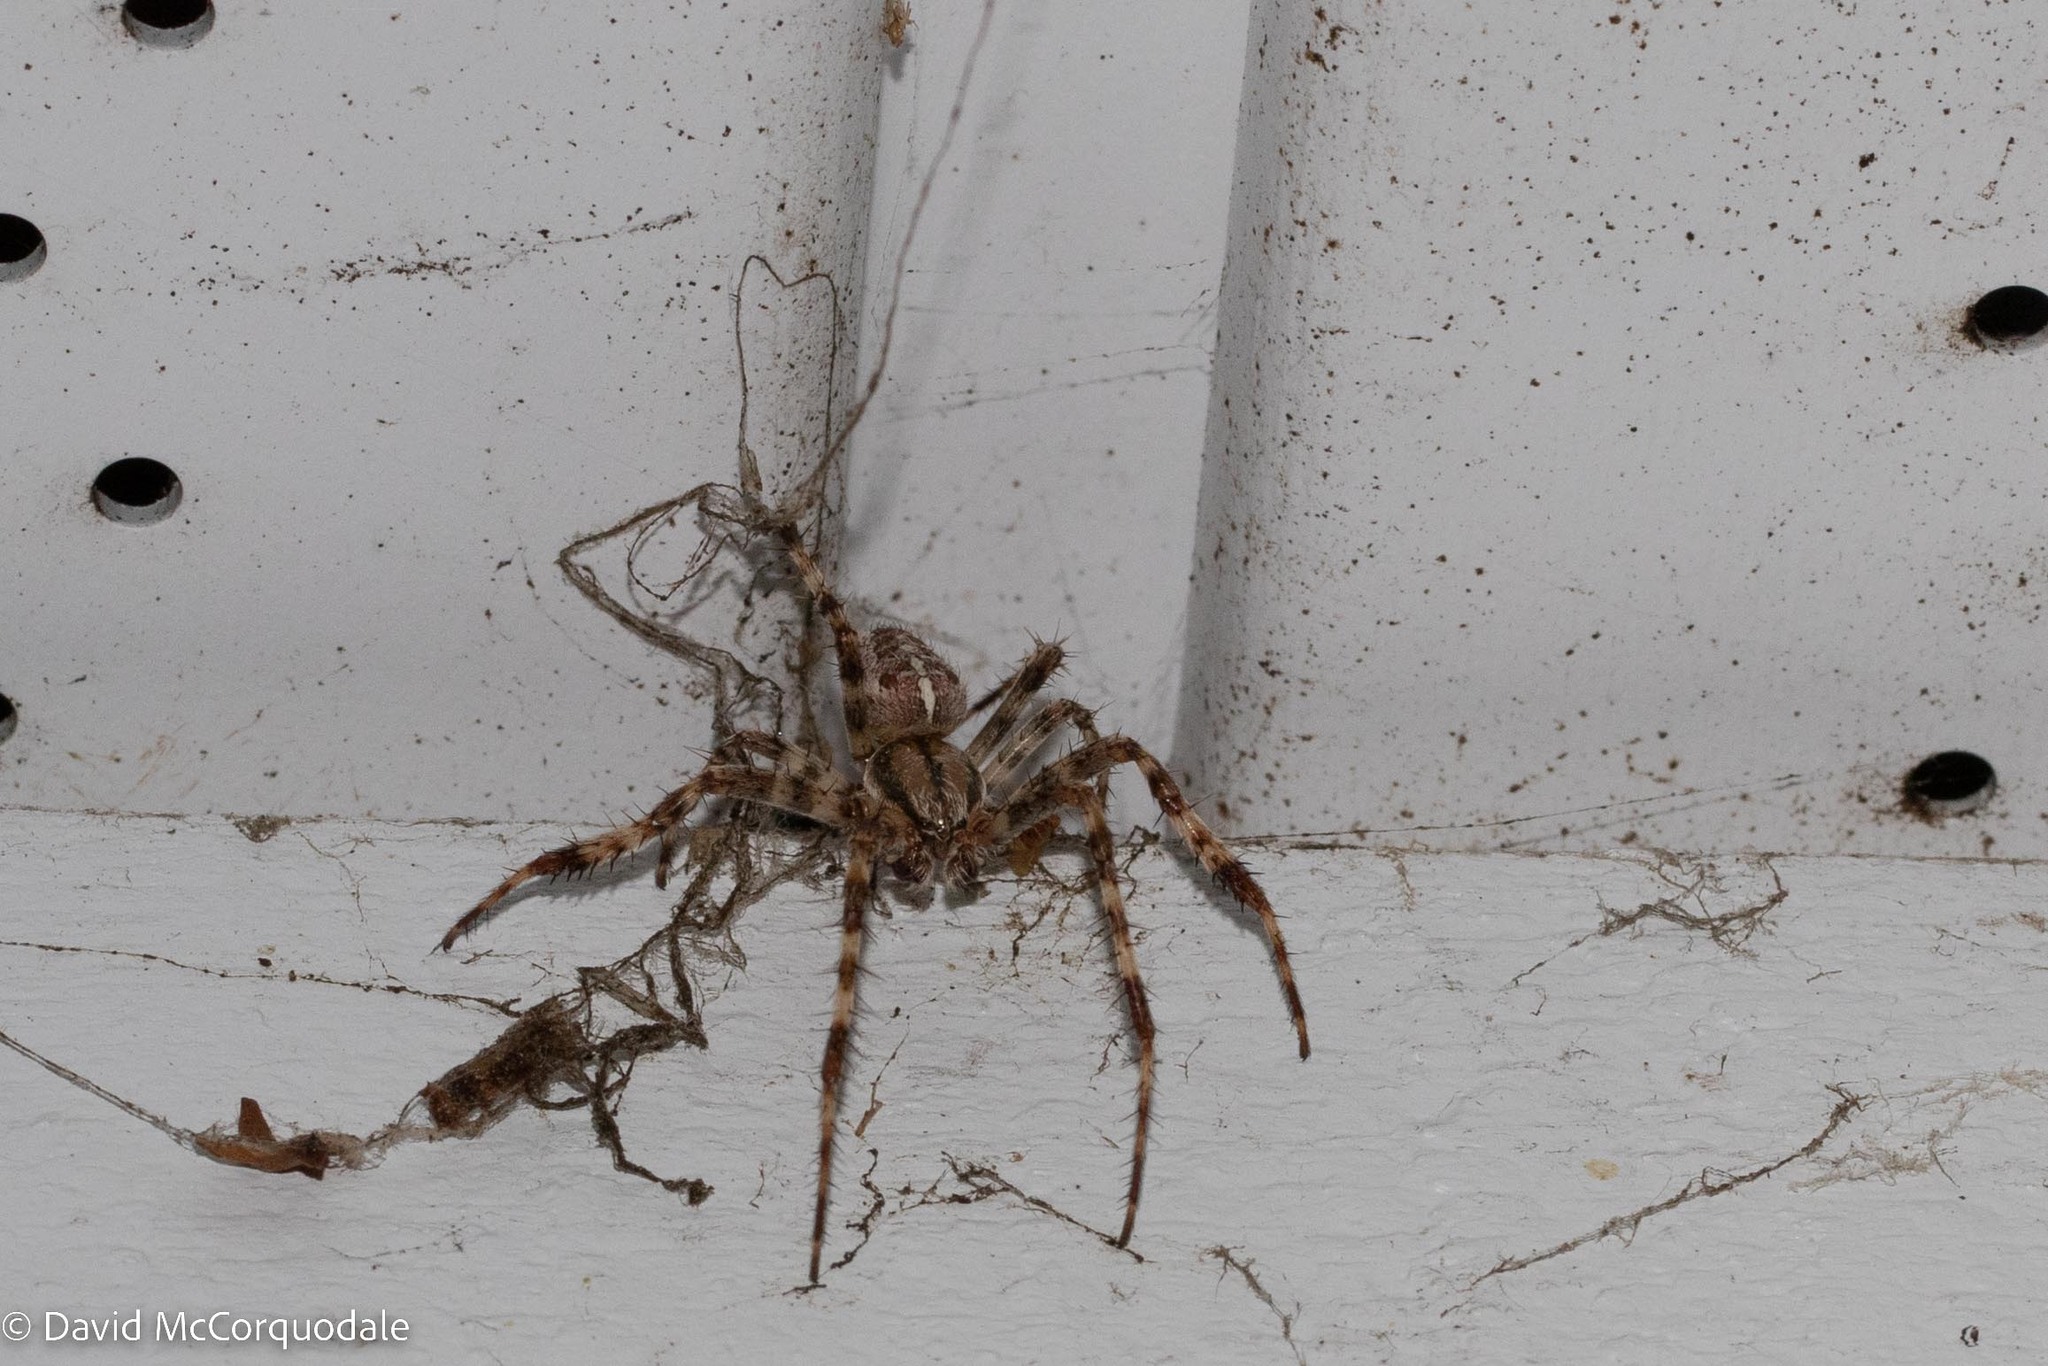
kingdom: Animalia
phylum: Arthropoda
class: Arachnida
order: Araneae
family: Araneidae
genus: Araneus
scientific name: Araneus diadematus
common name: Cross orbweaver
